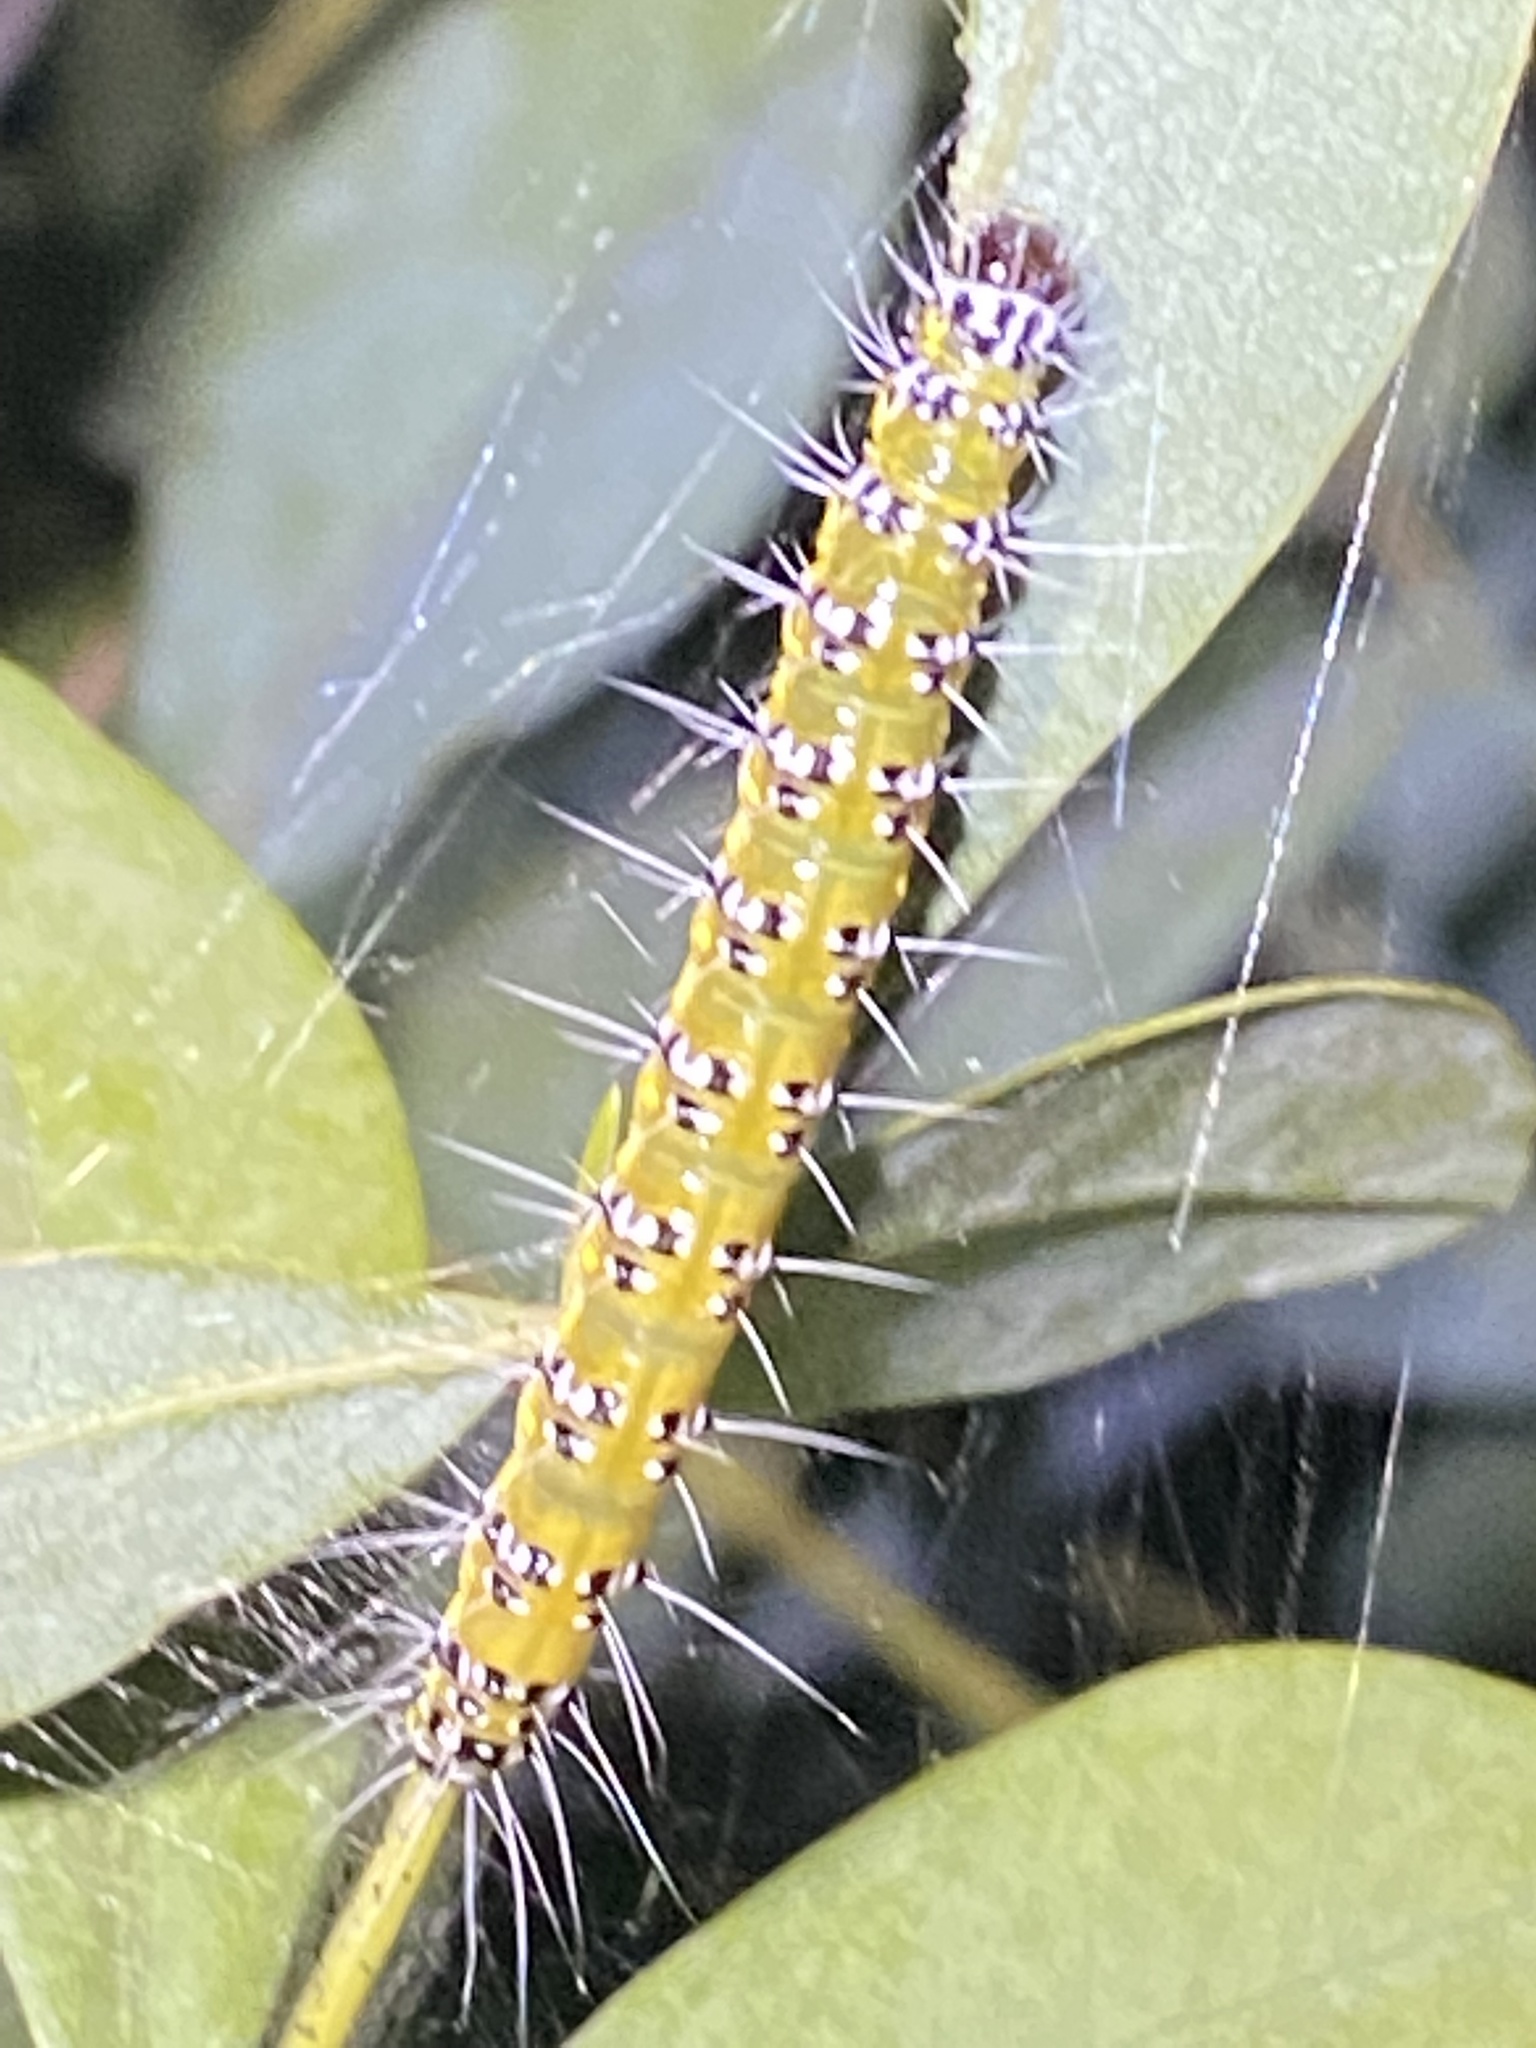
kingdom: Animalia
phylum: Arthropoda
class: Insecta
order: Lepidoptera
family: Crambidae
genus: Uresiphita
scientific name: Uresiphita reversalis
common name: Genista broom moth
